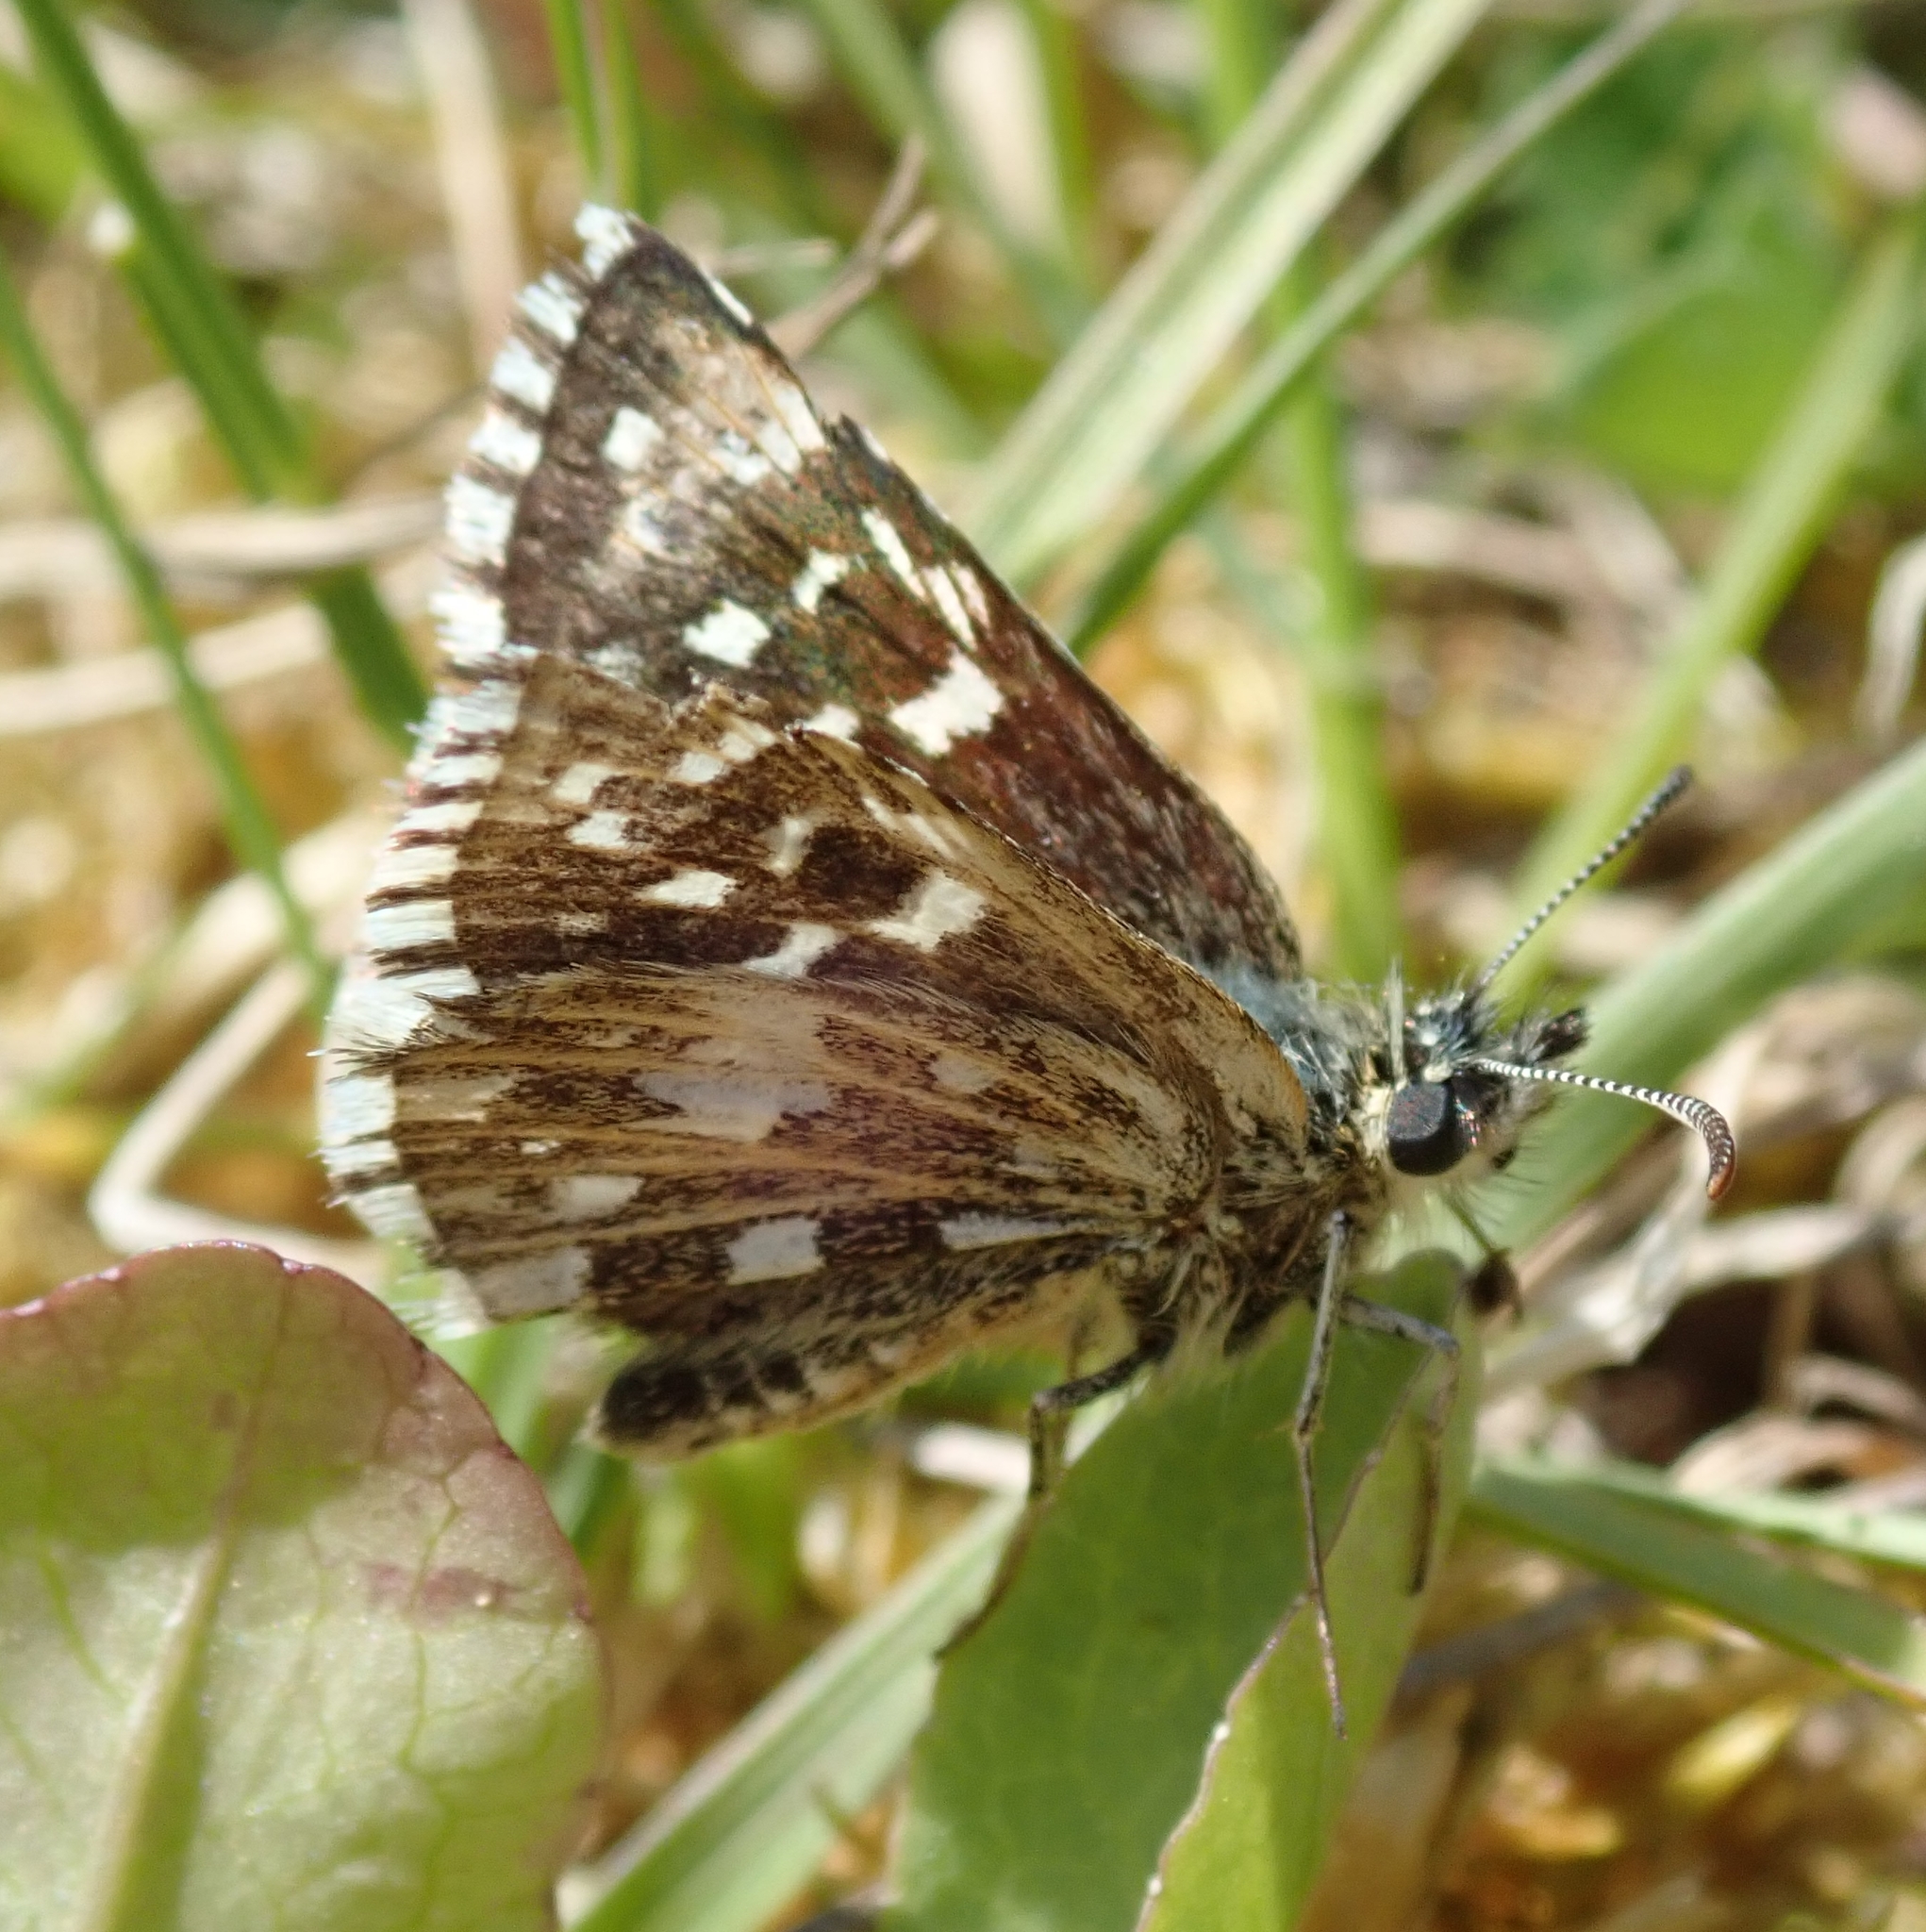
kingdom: Animalia
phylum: Arthropoda
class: Insecta
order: Lepidoptera
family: Hesperiidae
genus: Pyrgus
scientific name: Pyrgus malvae
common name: Grizzled skipper
